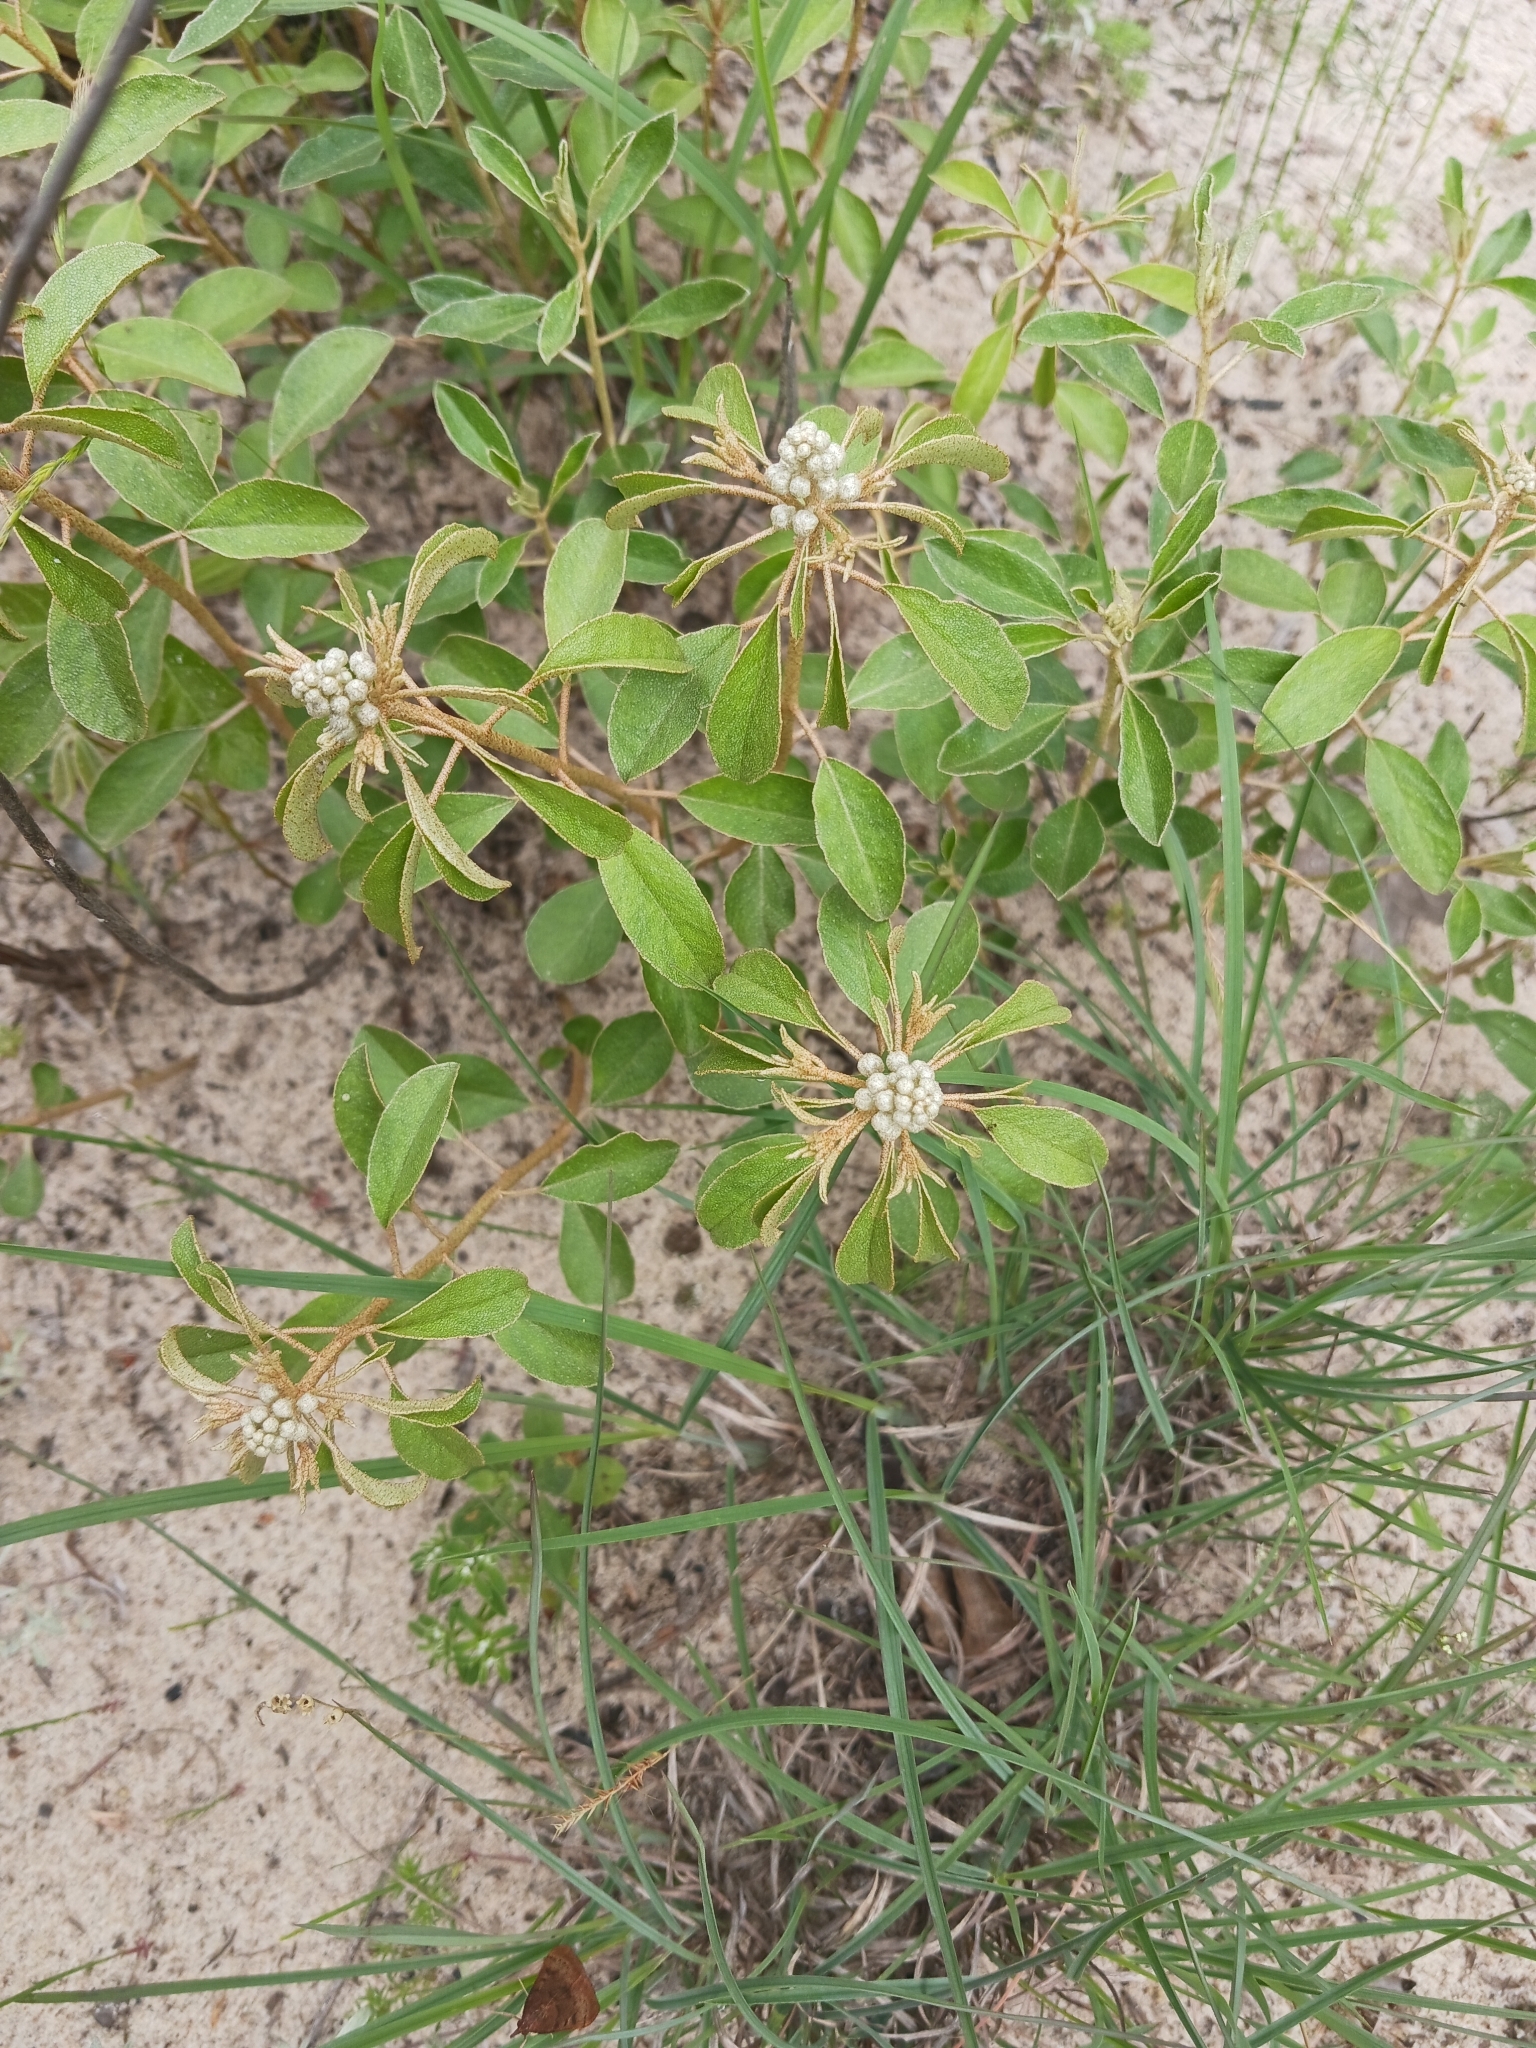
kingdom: Plantae
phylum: Tracheophyta
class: Magnoliopsida
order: Malpighiales
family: Euphorbiaceae
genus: Croton
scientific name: Croton argyranthemus
